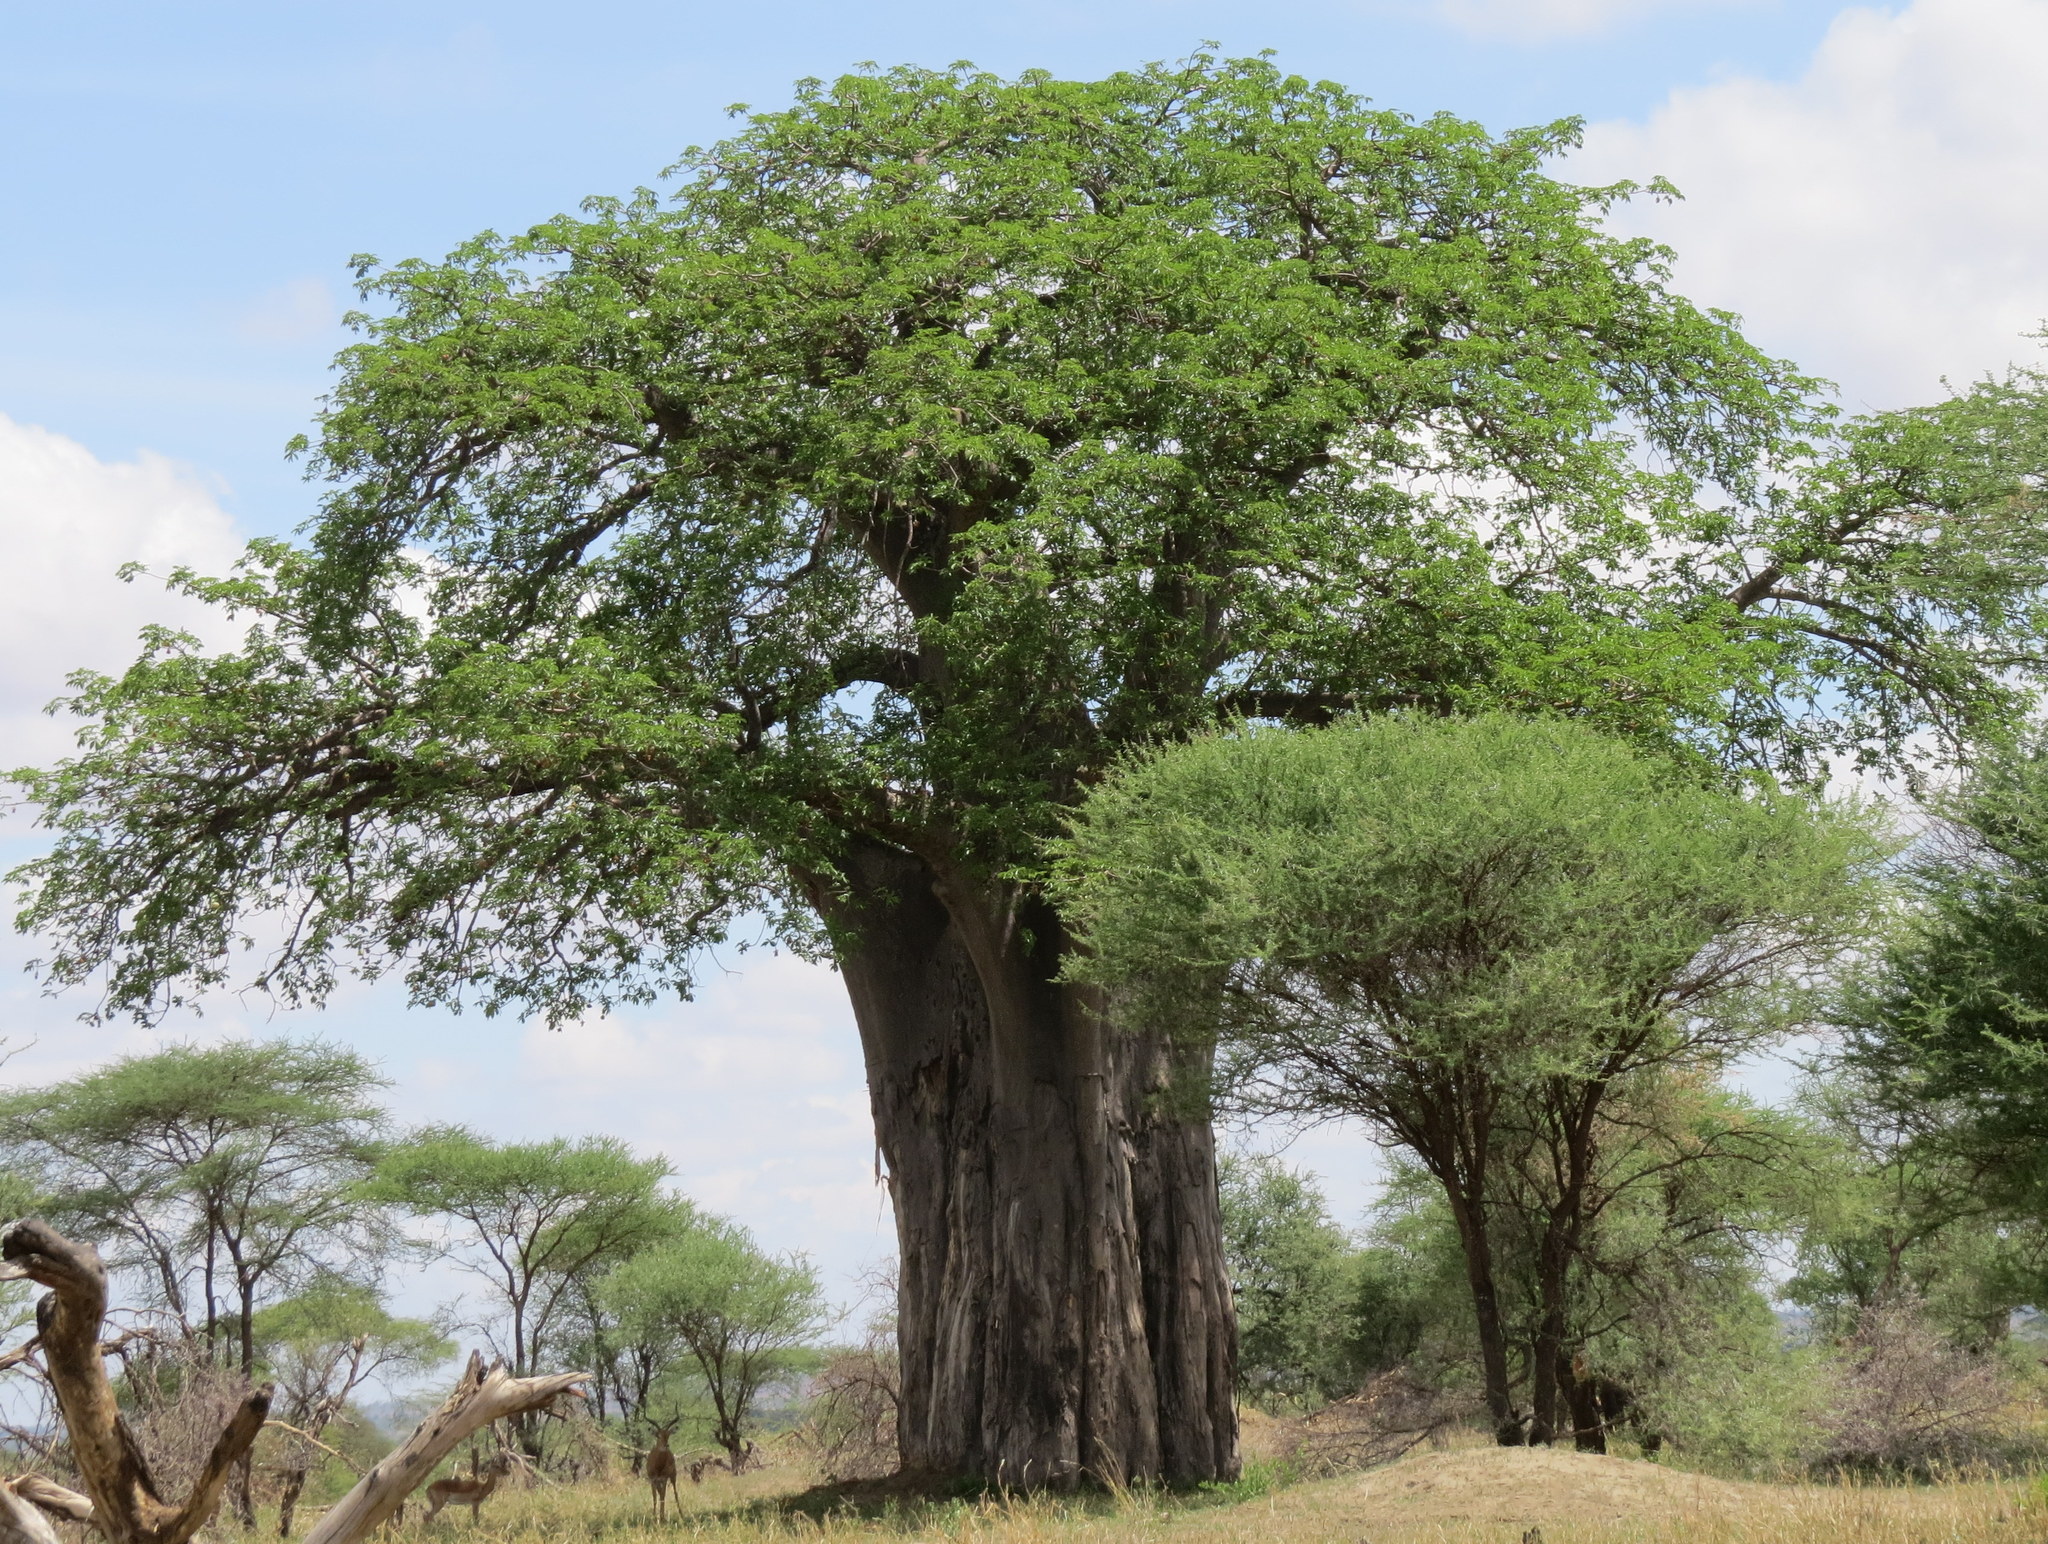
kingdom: Plantae
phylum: Tracheophyta
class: Magnoliopsida
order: Malvales
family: Malvaceae
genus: Adansonia
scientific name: Adansonia digitata
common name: Dead-rat-tree
